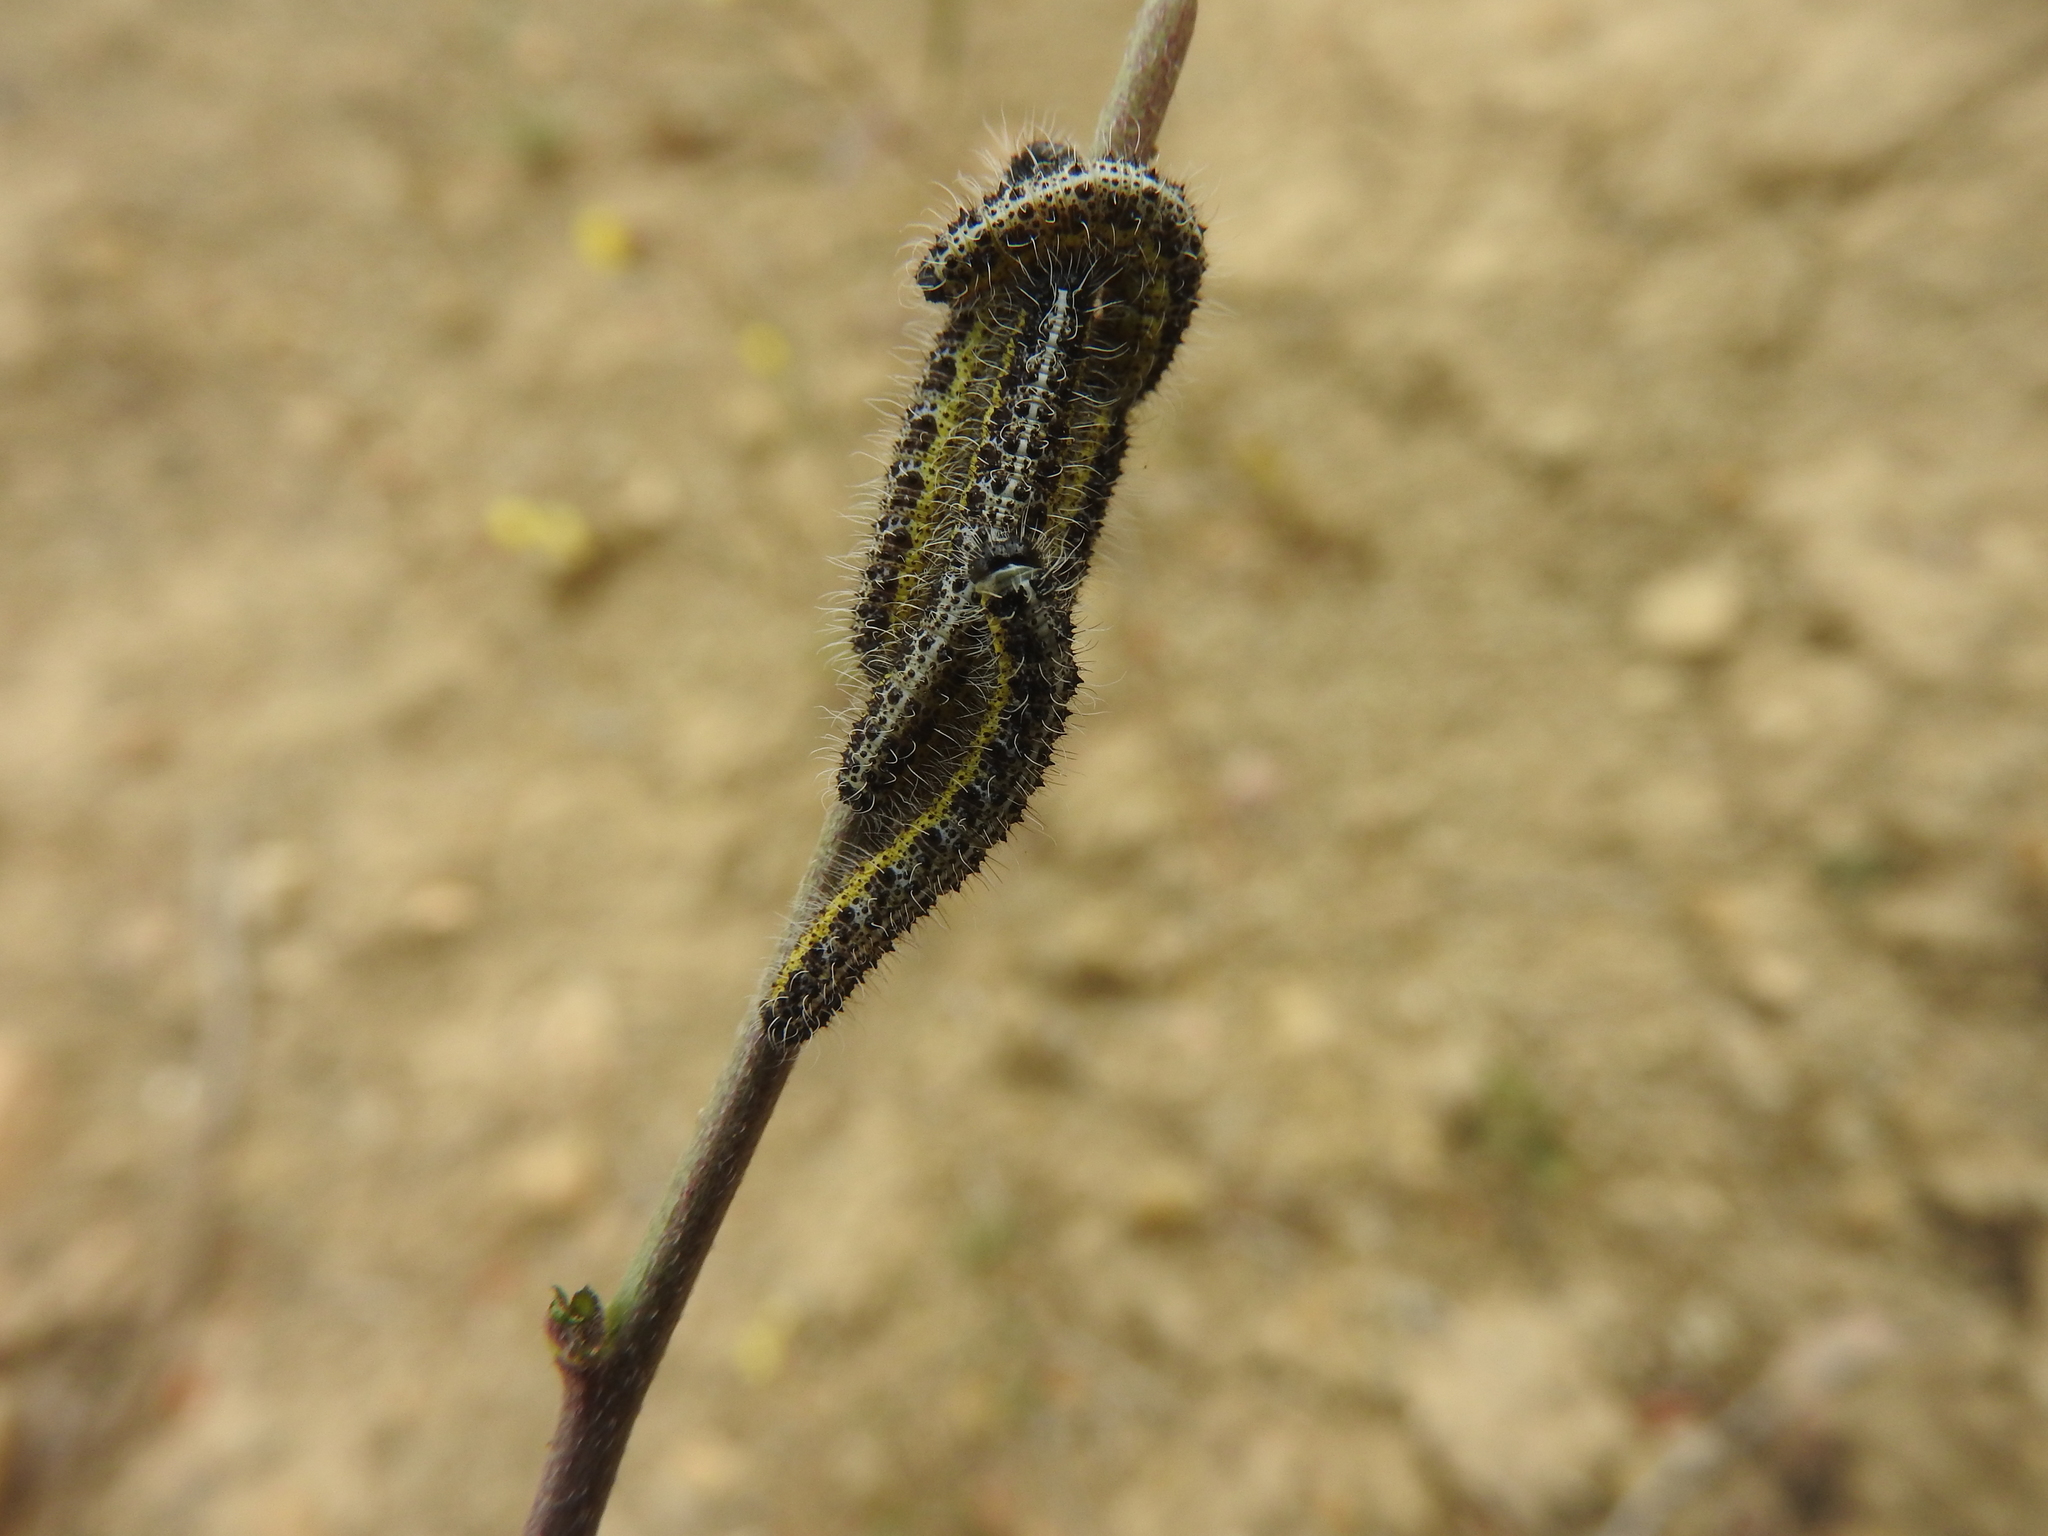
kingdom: Animalia
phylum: Arthropoda
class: Insecta
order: Lepidoptera
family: Pieridae
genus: Pieris
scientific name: Pieris brassicae
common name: Large white
